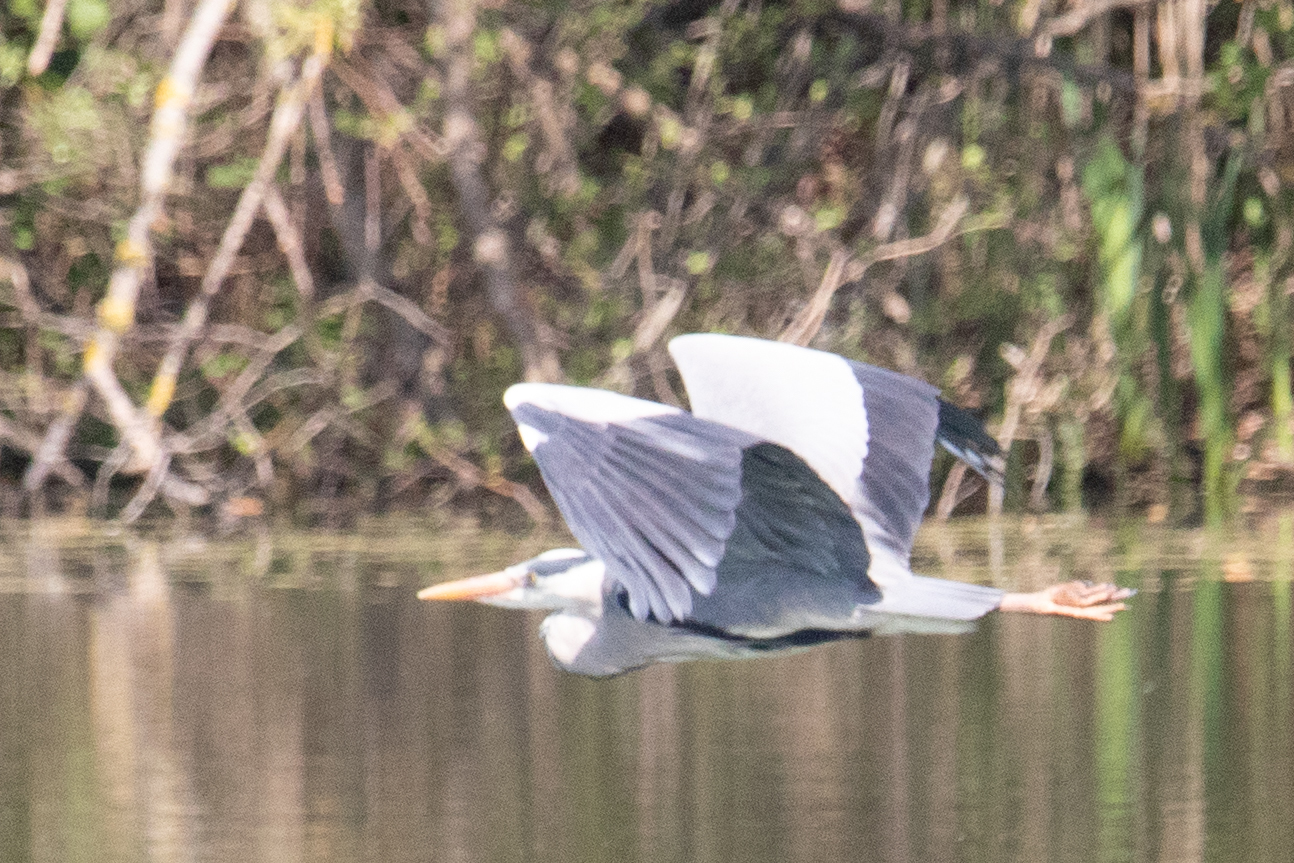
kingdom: Animalia
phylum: Chordata
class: Aves
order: Pelecaniformes
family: Ardeidae
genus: Ardea
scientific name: Ardea cinerea
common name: Grey heron
